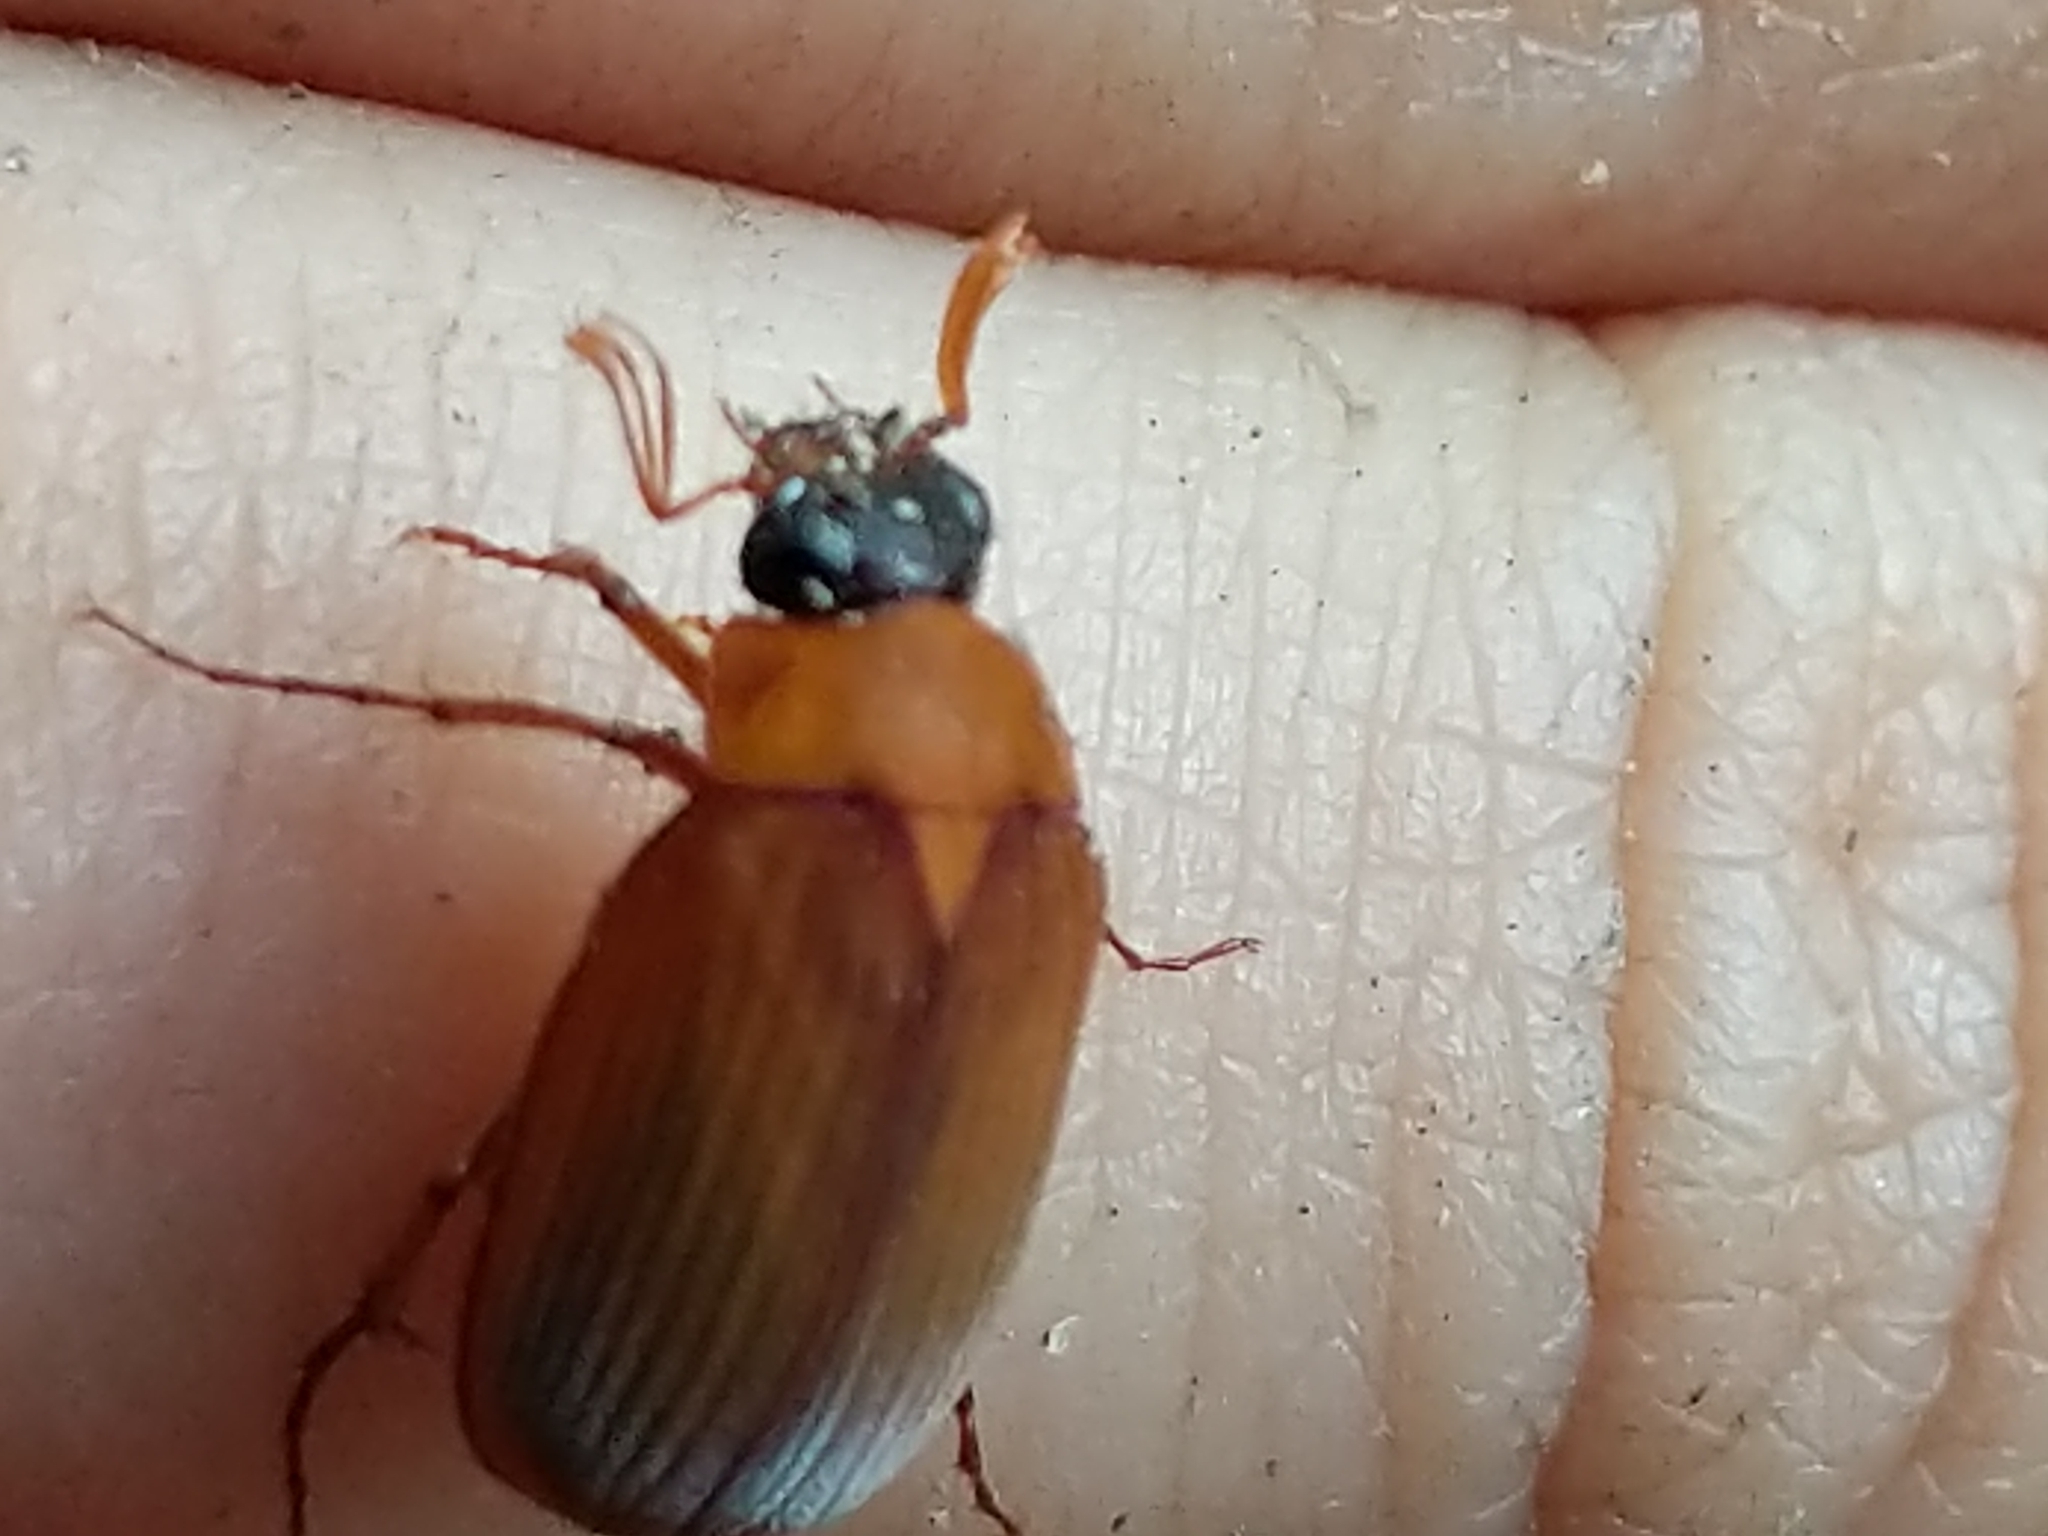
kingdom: Animalia
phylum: Arthropoda
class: Insecta
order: Coleoptera
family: Scarabaeidae
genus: Nipponoserica
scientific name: Nipponoserica peregrina
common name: Scarab beetle
